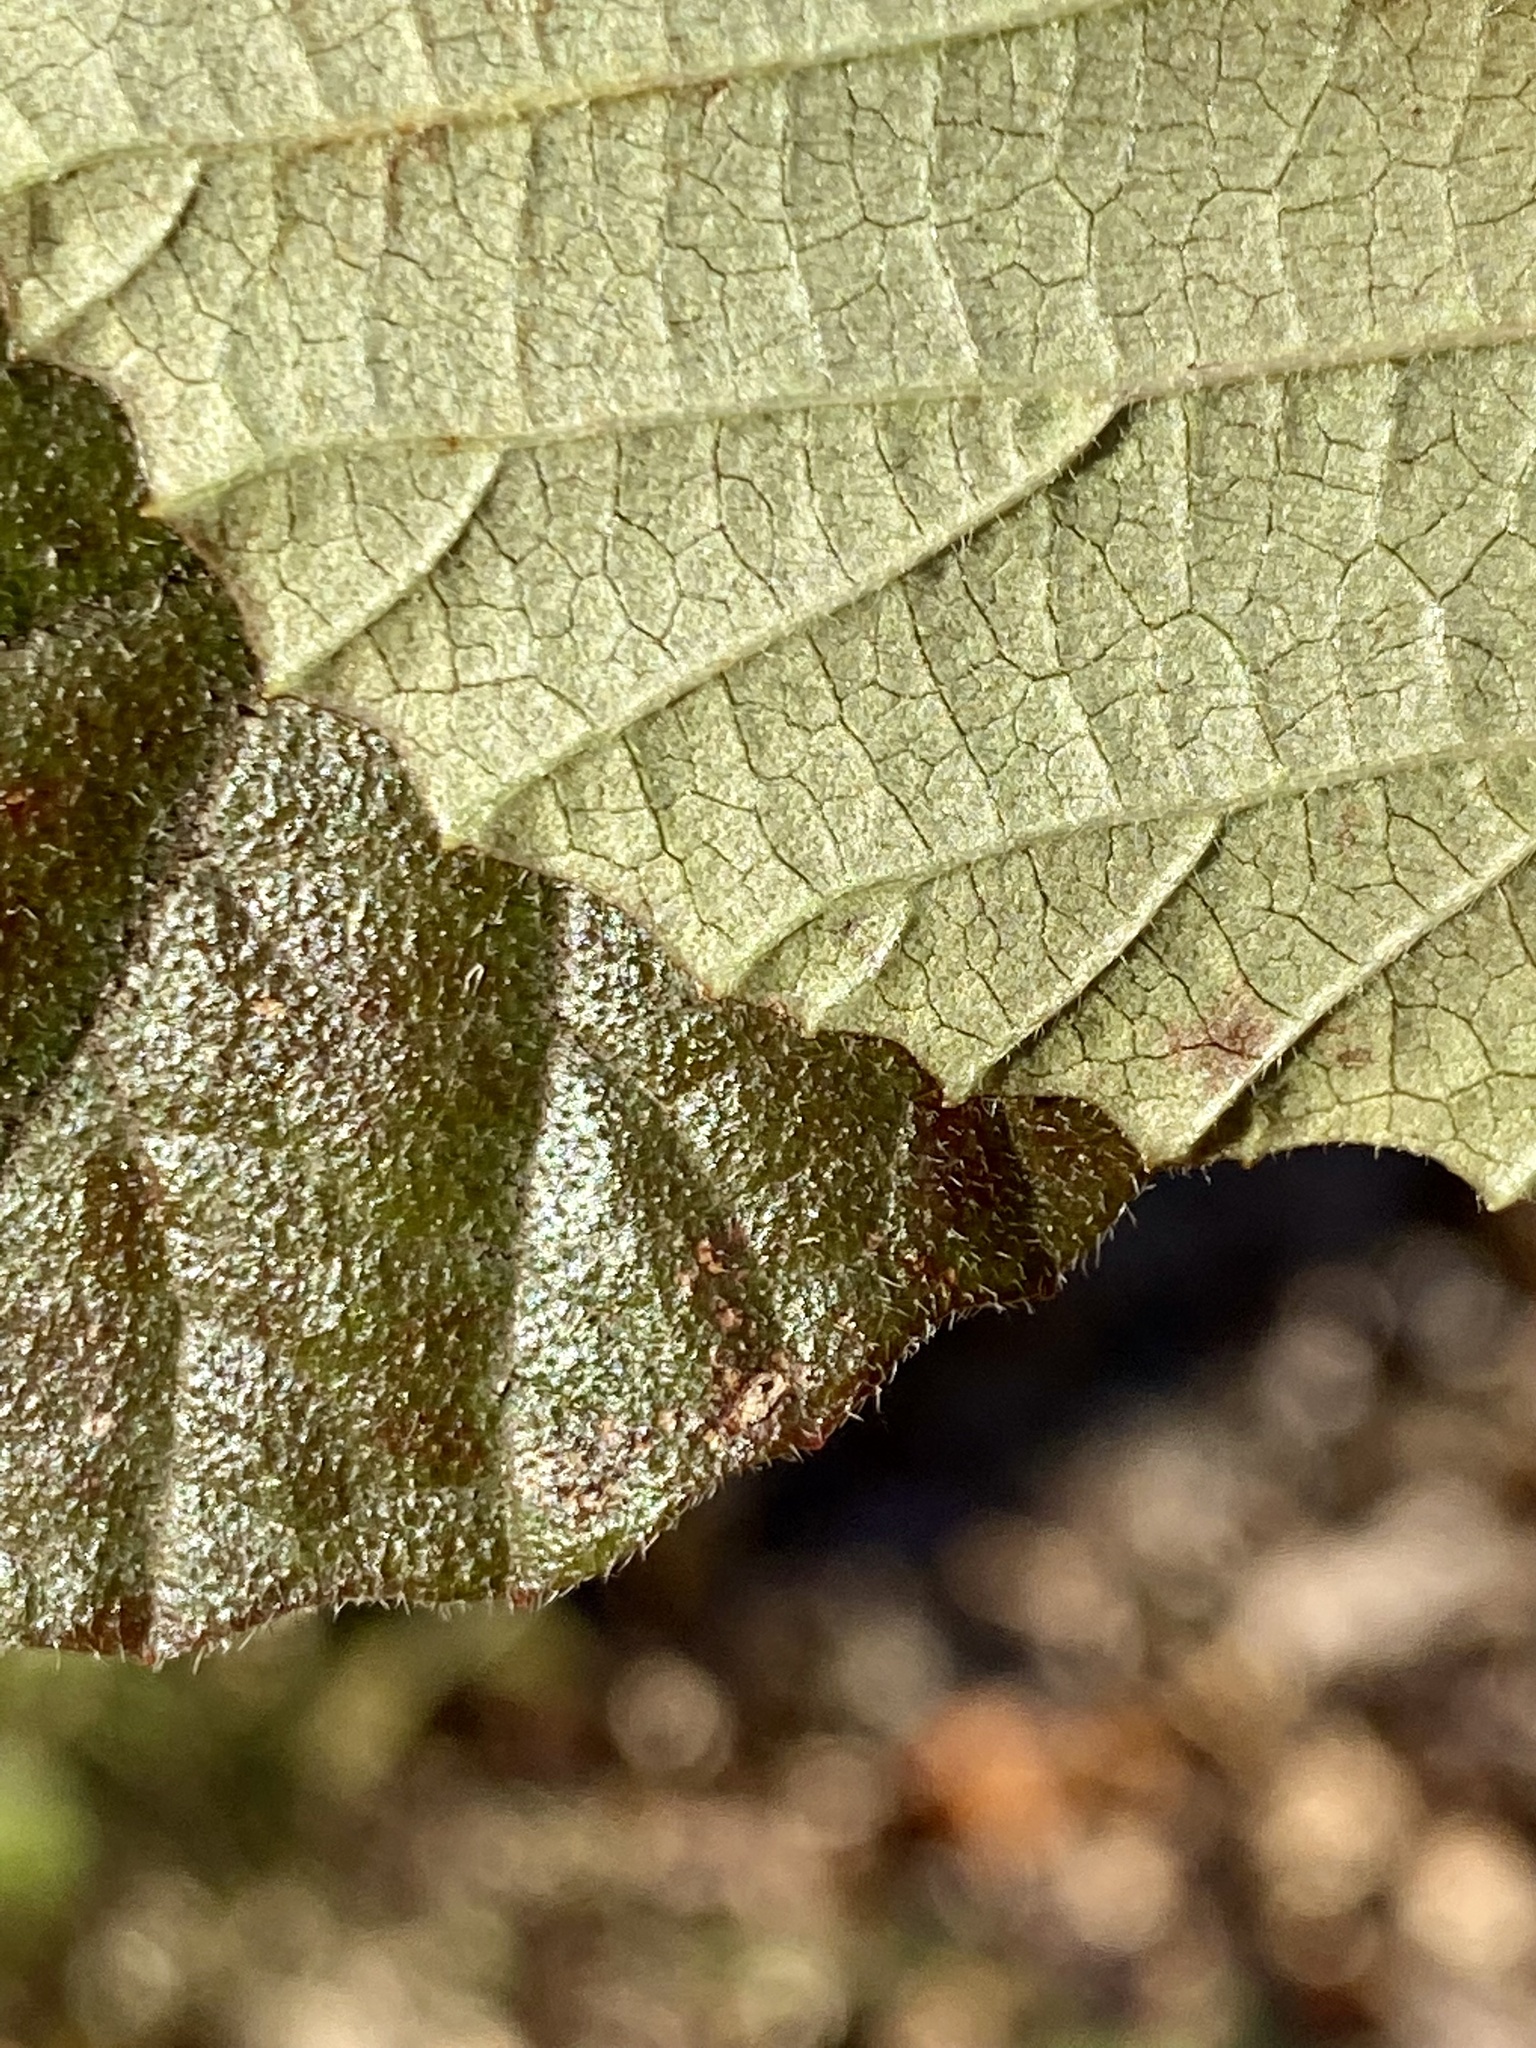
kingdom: Plantae
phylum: Tracheophyta
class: Magnoliopsida
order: Dipsacales
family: Viburnaceae
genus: Viburnum
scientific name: Viburnum dilatatum
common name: Linden arrowwood
